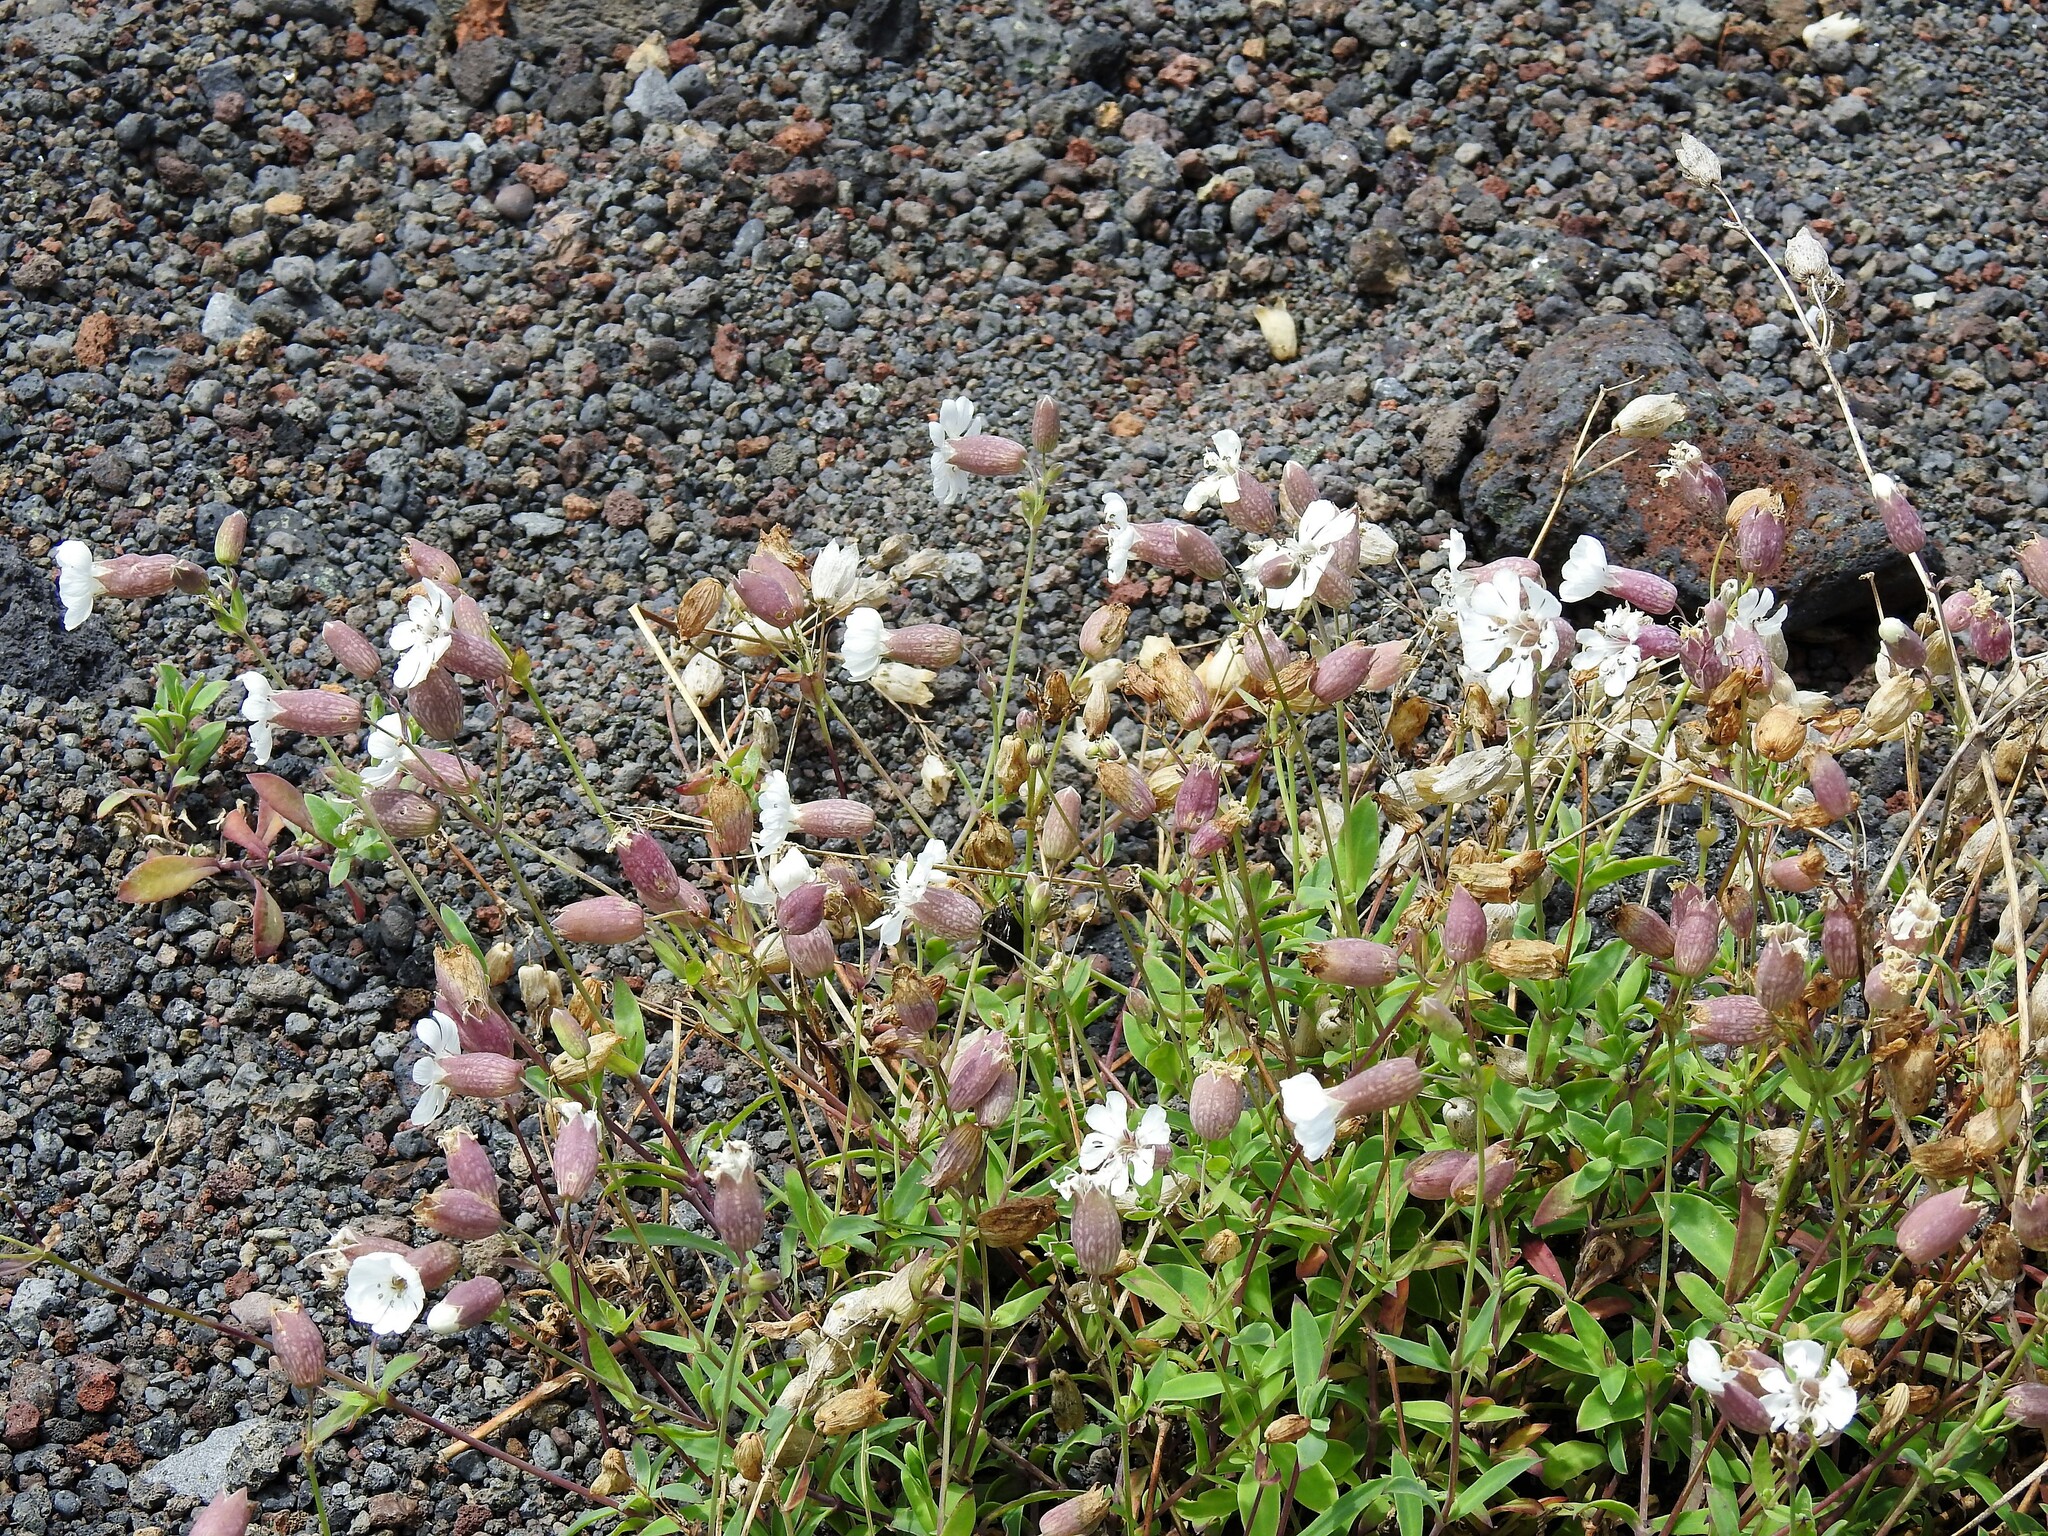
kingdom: Plantae
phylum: Tracheophyta
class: Magnoliopsida
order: Caryophyllales
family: Caryophyllaceae
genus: Silene
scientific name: Silene uniflora
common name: Sea campion
